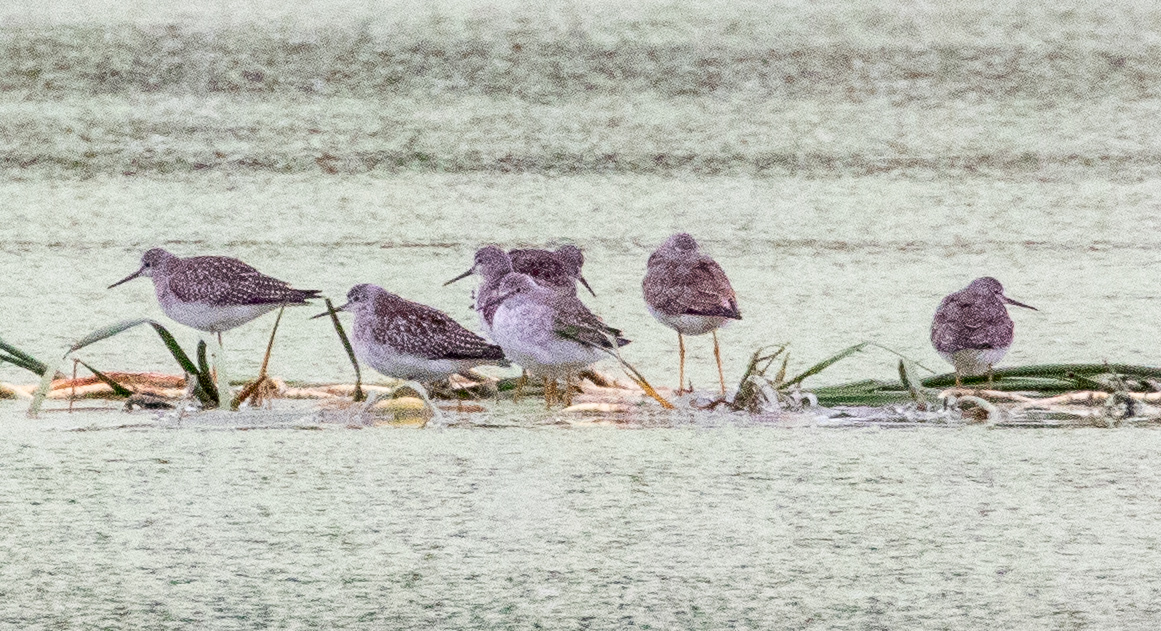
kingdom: Animalia
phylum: Chordata
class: Aves
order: Charadriiformes
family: Scolopacidae
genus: Tringa
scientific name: Tringa flavipes
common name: Lesser yellowlegs
